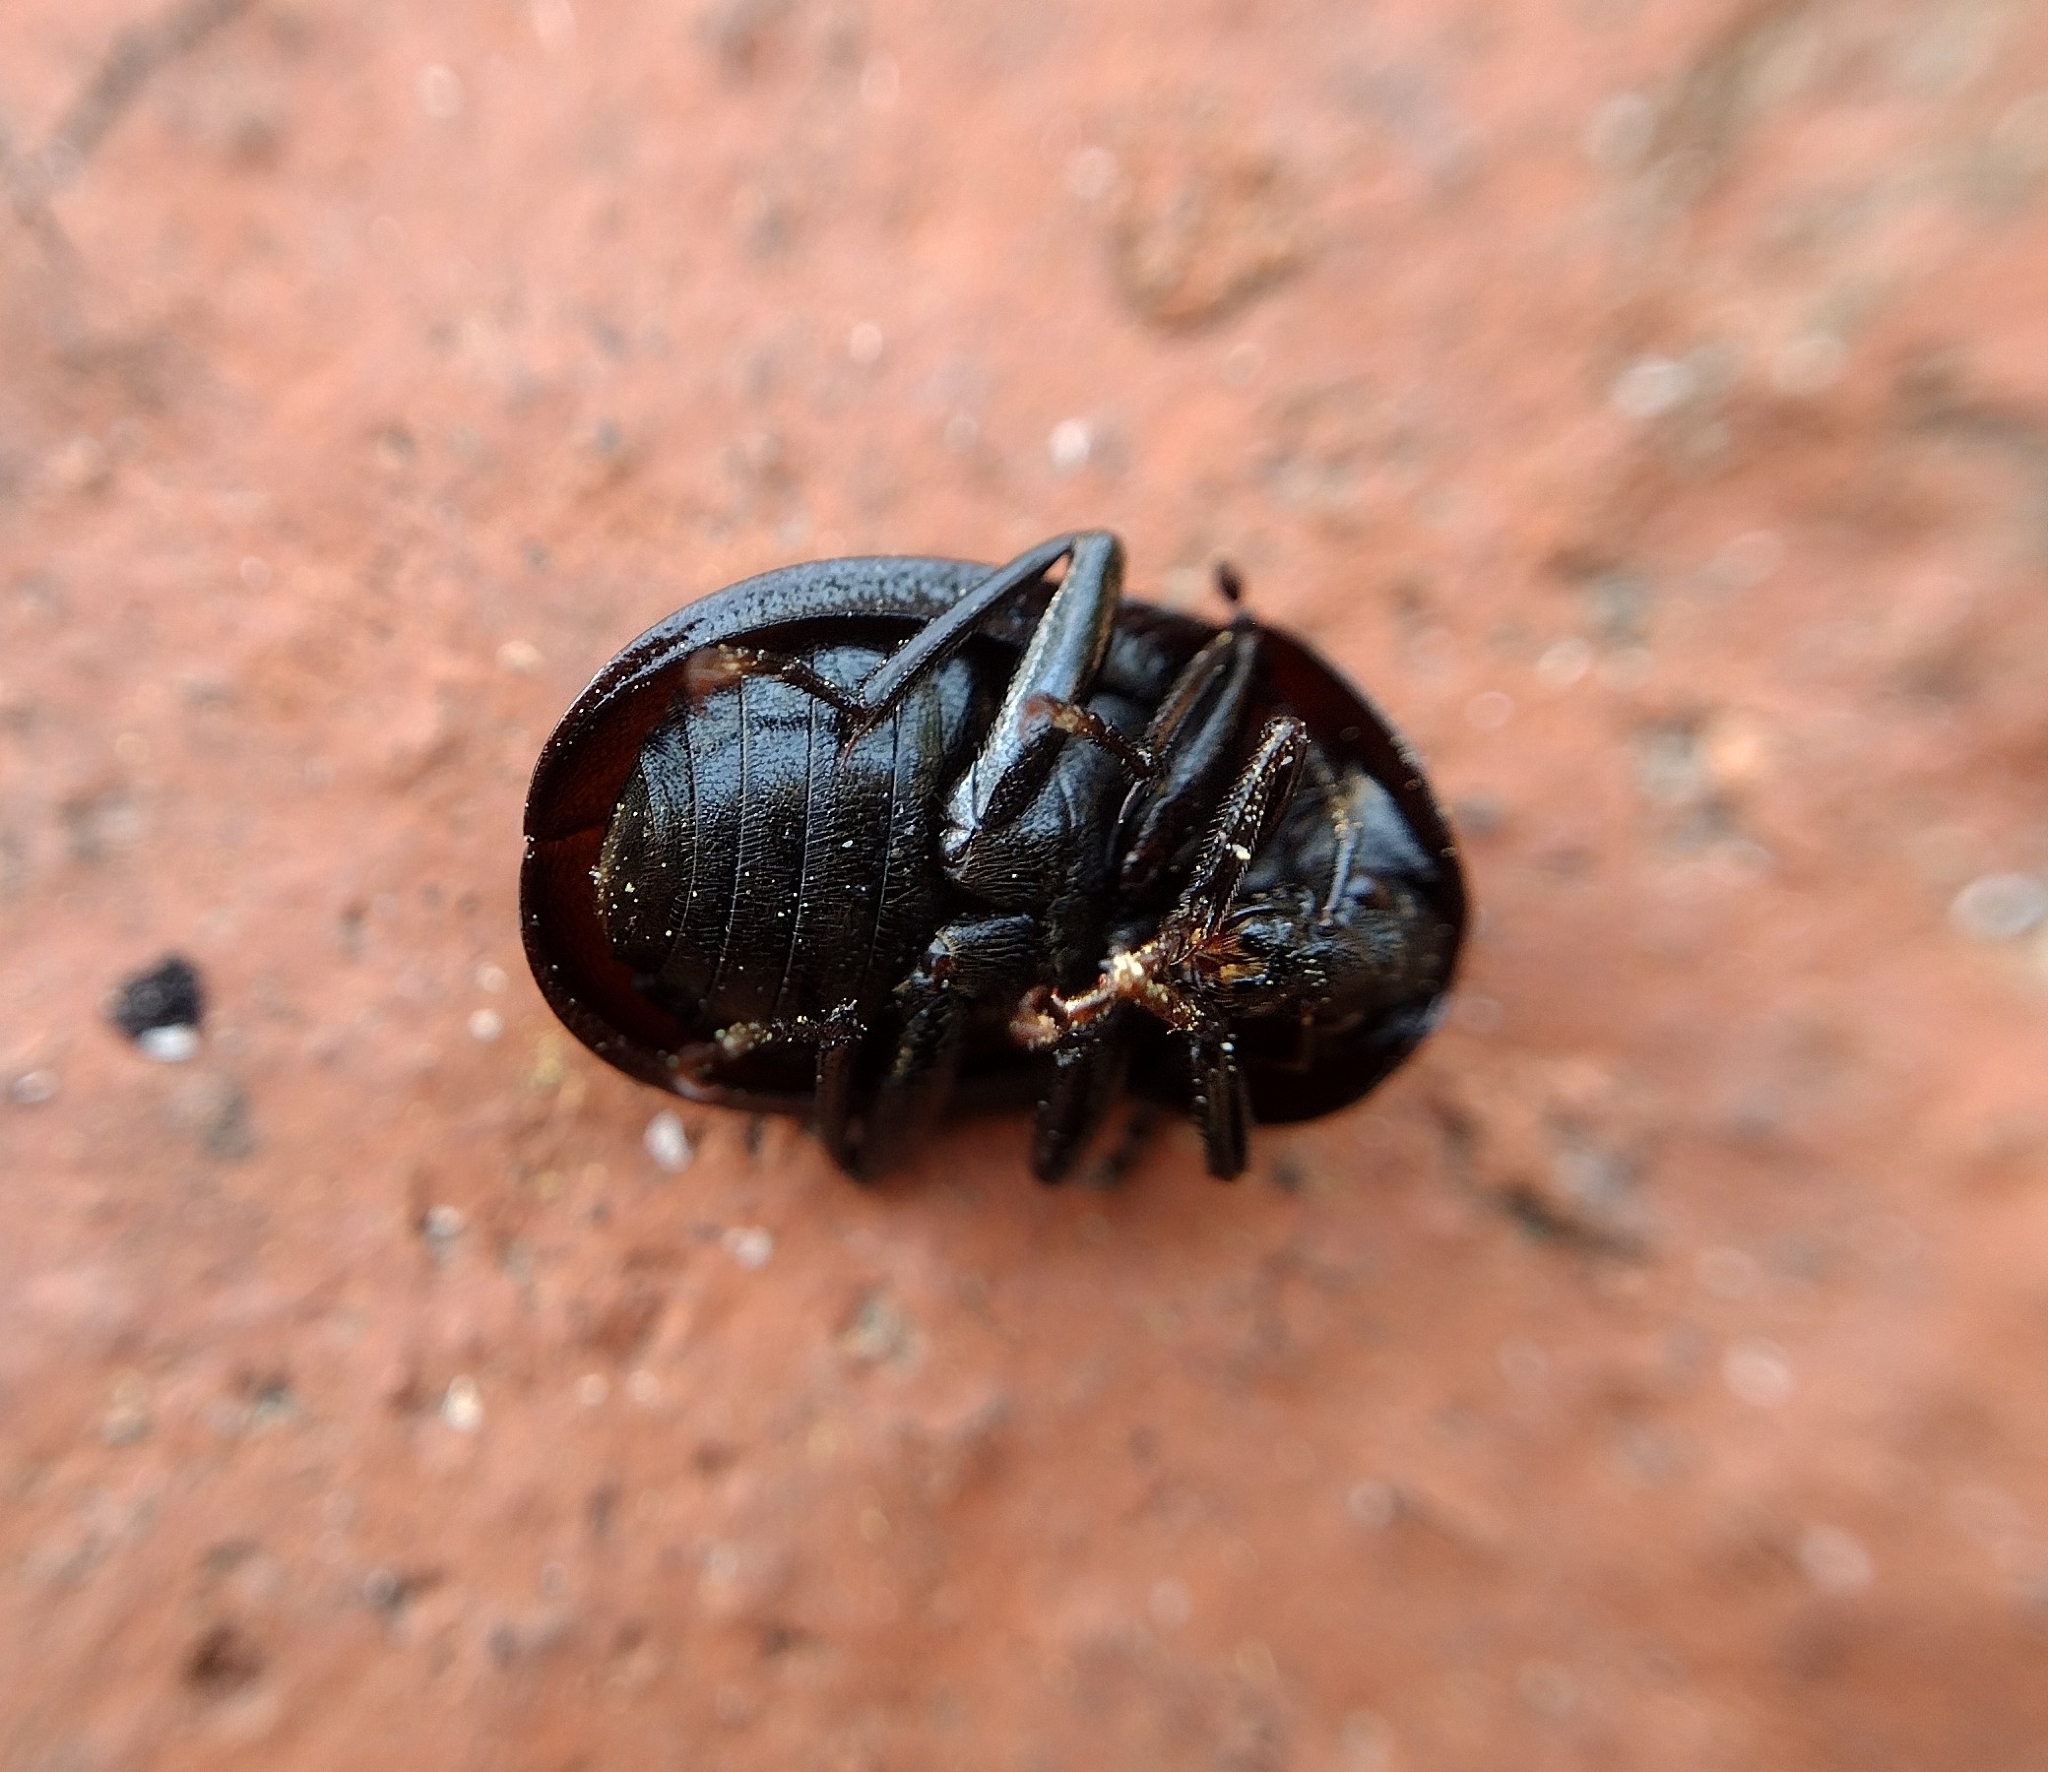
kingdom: Animalia
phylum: Arthropoda
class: Insecta
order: Coleoptera
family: Staphylinidae
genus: Silpha
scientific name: Silpha atrata
